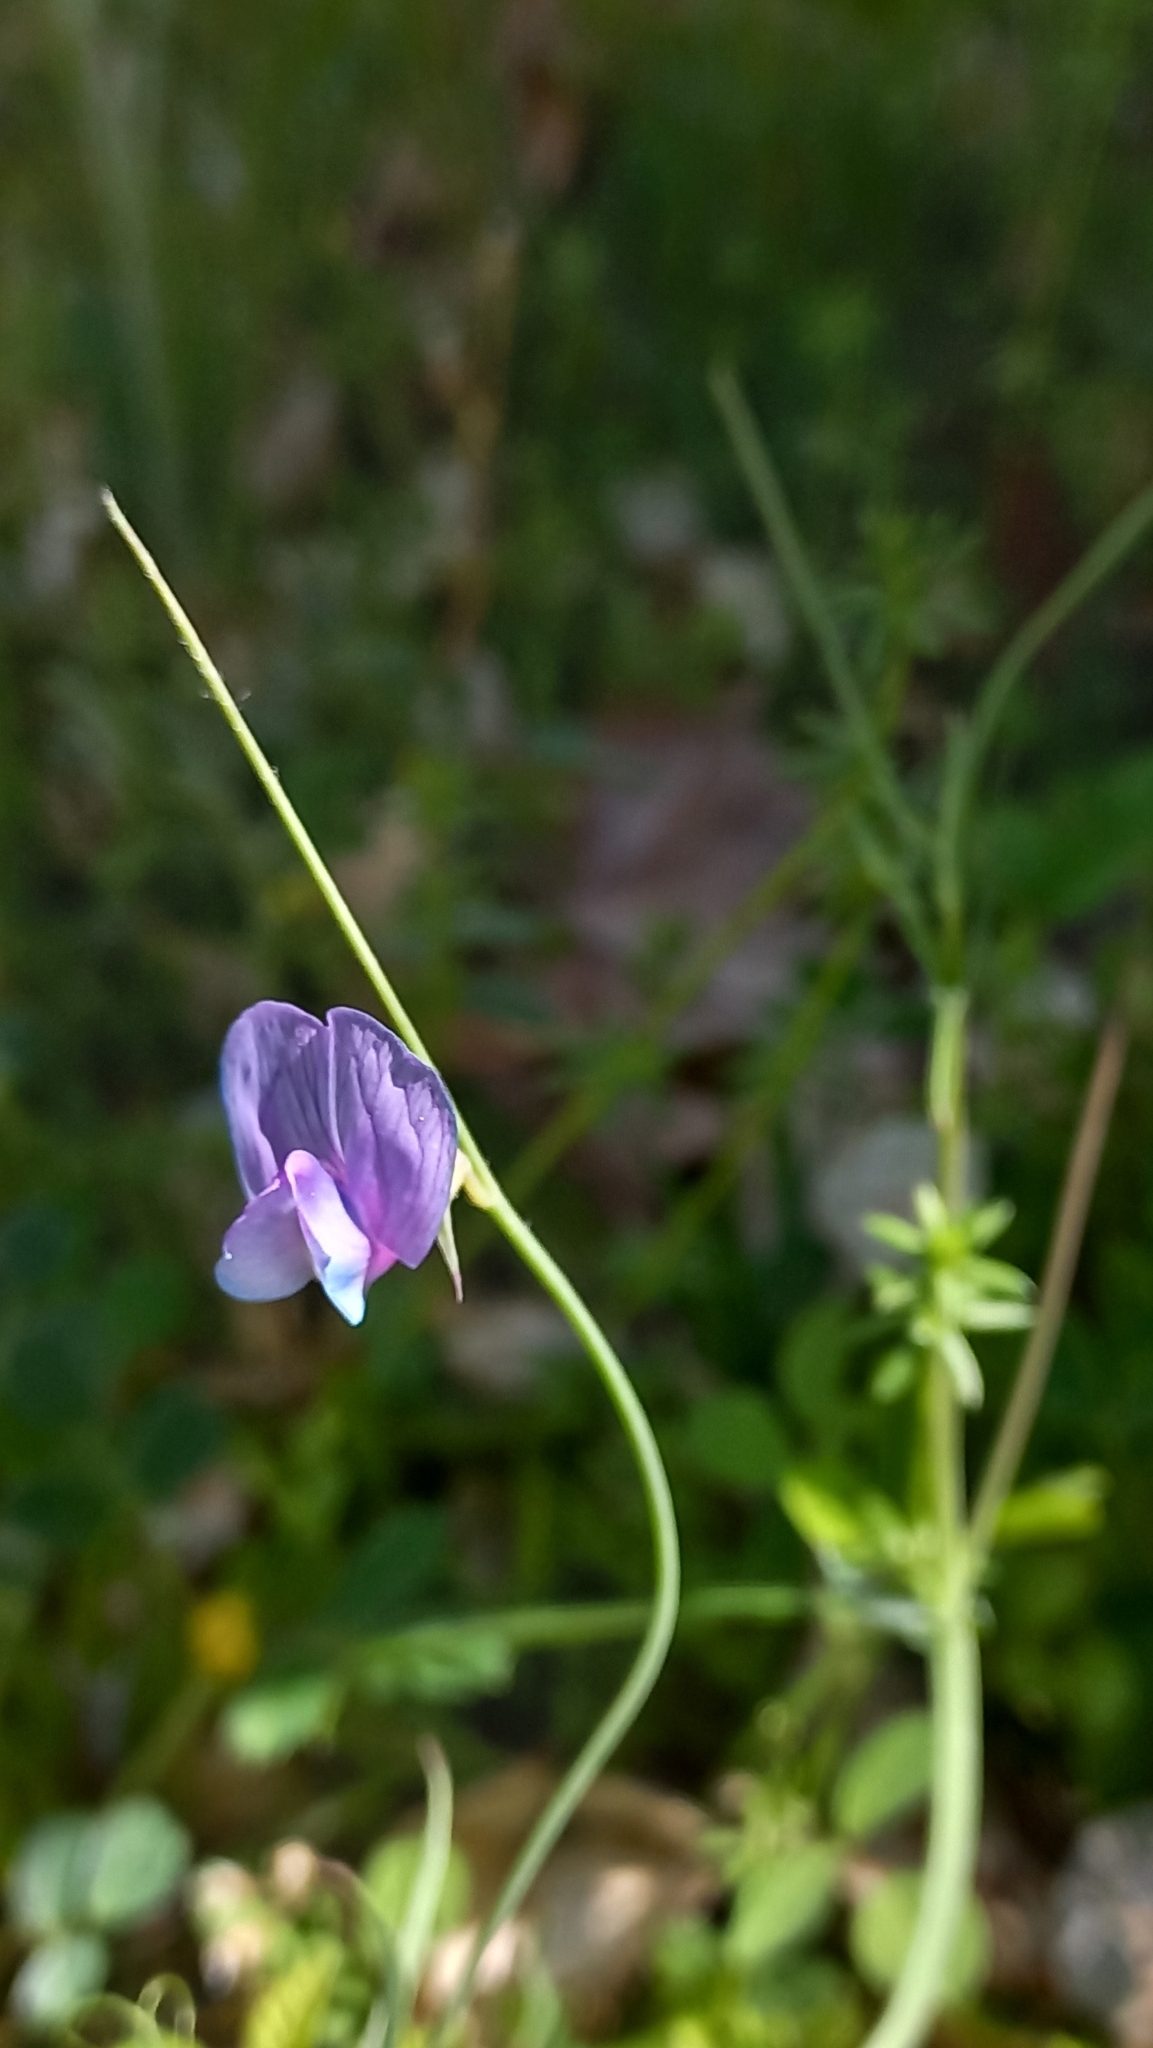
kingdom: Plantae
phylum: Tracheophyta
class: Magnoliopsida
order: Fabales
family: Fabaceae
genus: Lathyrus
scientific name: Lathyrus angulatus
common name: Angular pea
